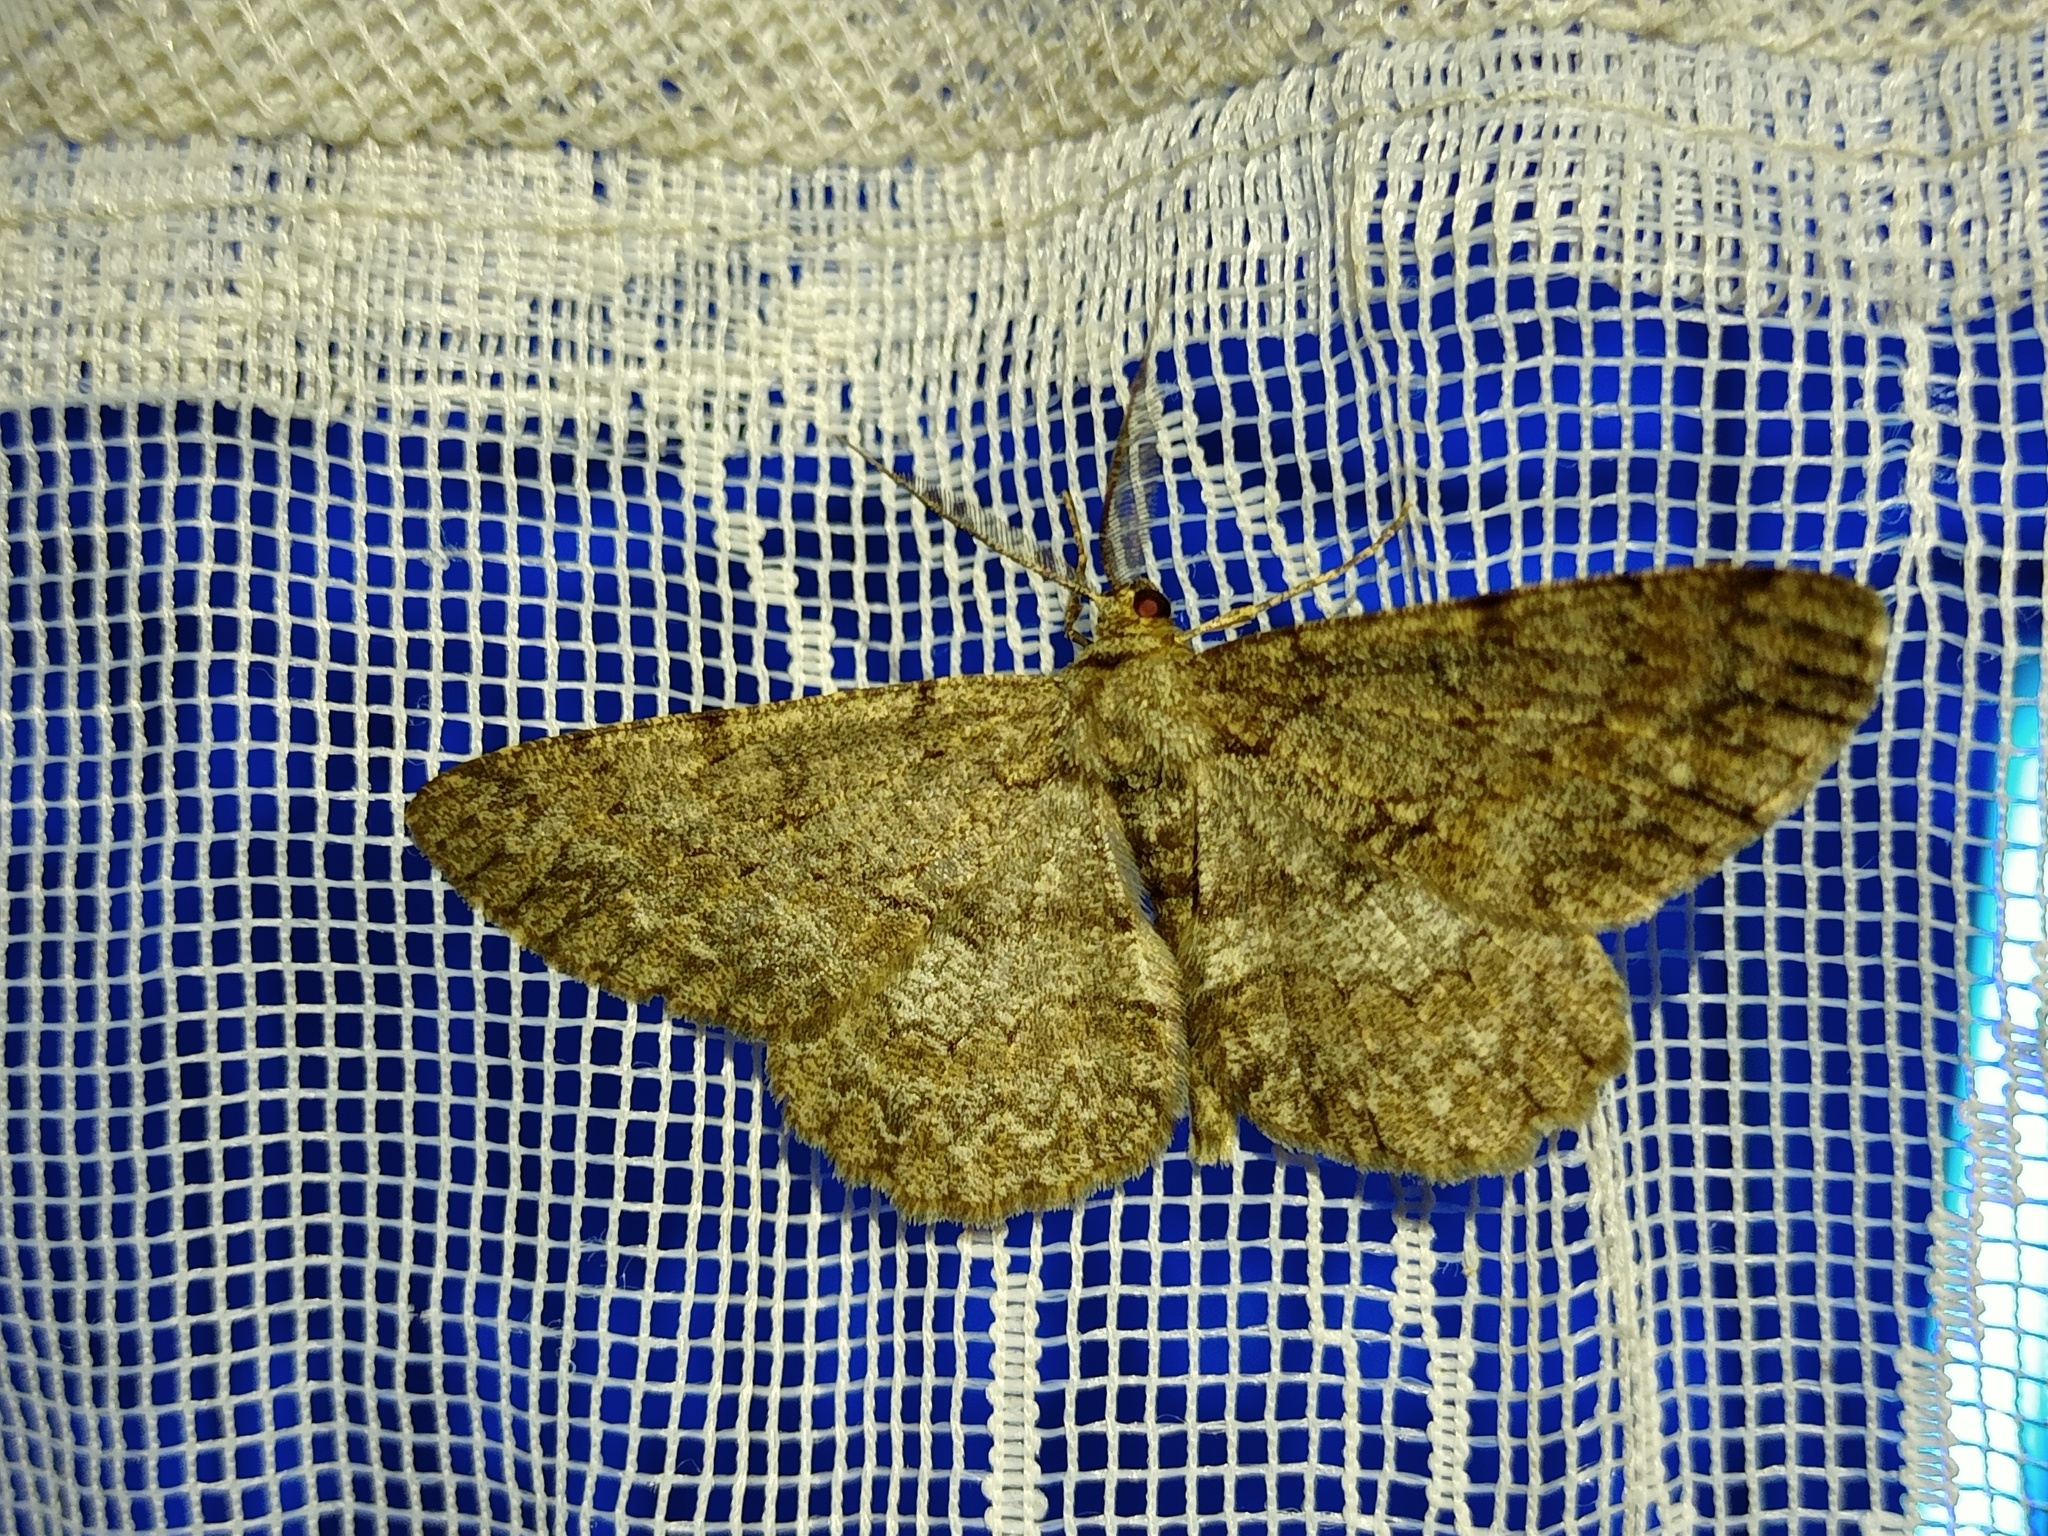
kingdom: Animalia
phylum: Arthropoda
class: Insecta
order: Lepidoptera
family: Geometridae
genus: Hypomecis
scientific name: Hypomecis punctinalis
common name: Pale oak beauty
